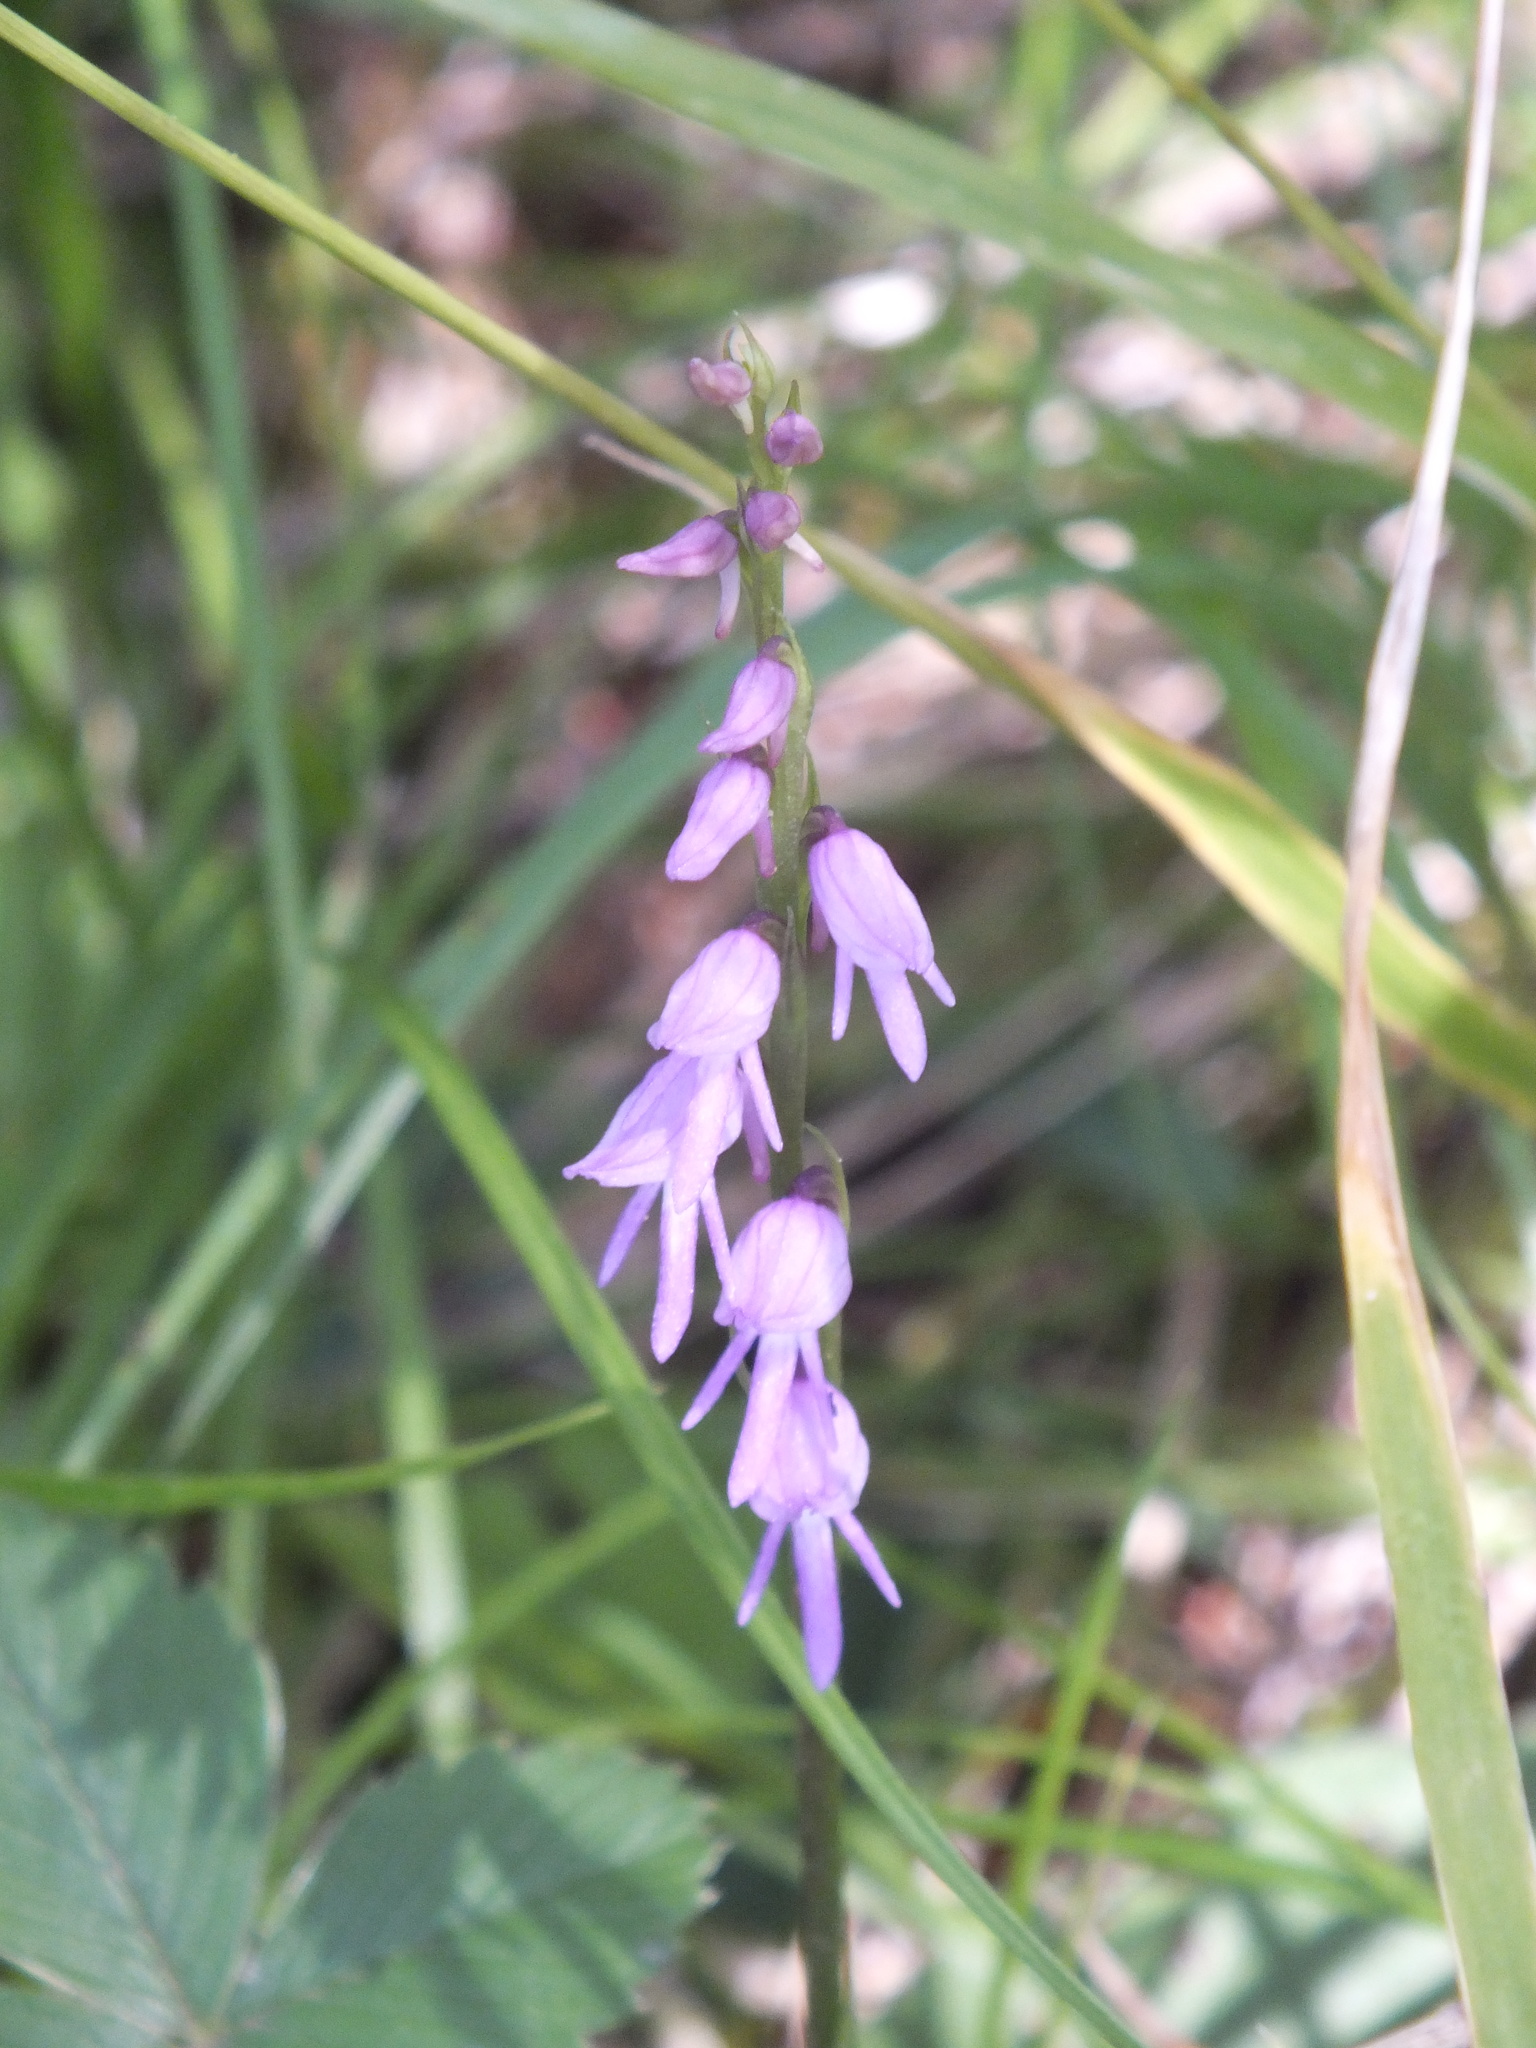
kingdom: Plantae
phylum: Tracheophyta
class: Liliopsida
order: Asparagales
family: Orchidaceae
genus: Hemipilia
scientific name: Hemipilia cucullata
